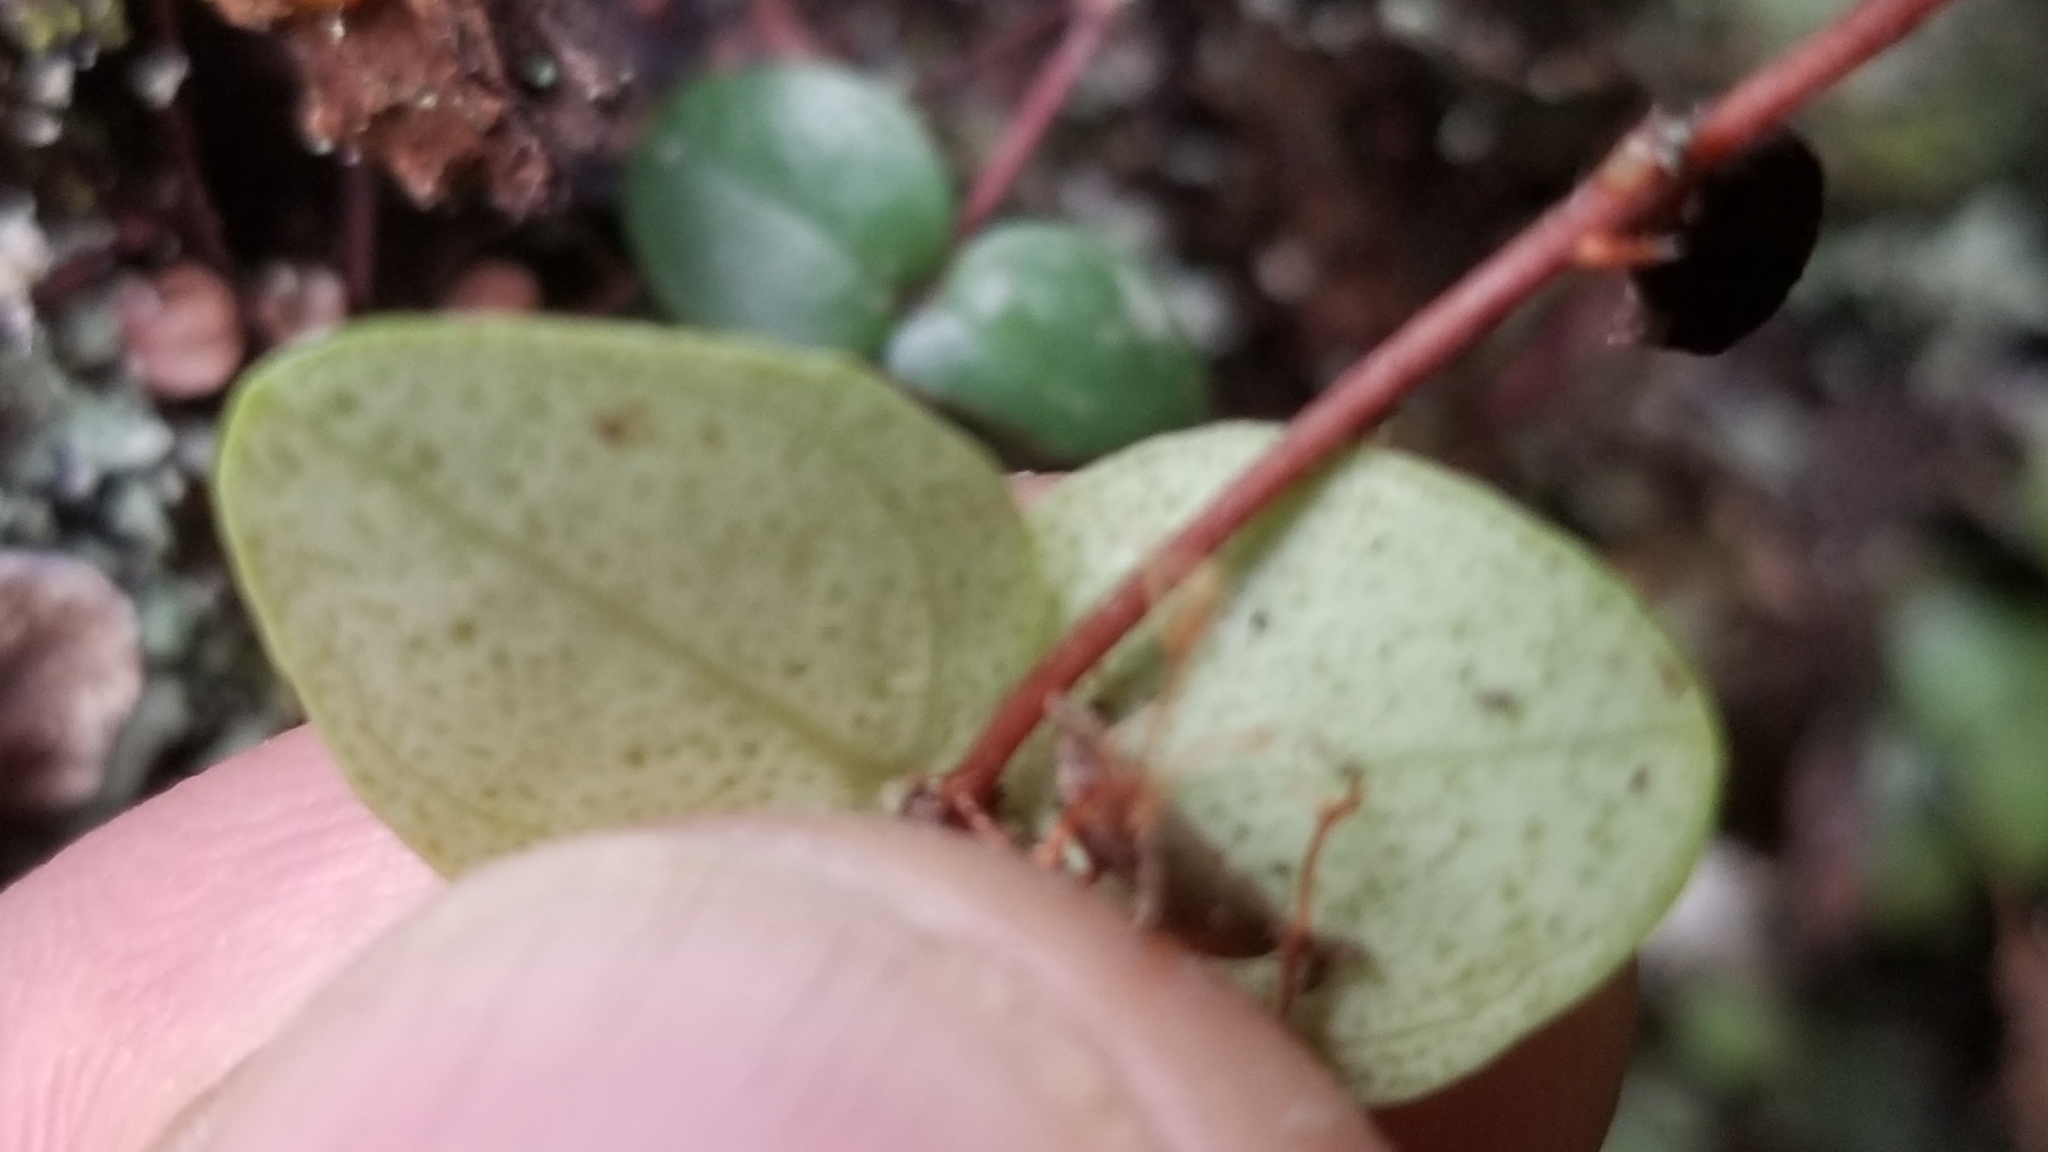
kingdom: Plantae
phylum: Tracheophyta
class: Magnoliopsida
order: Myrtales
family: Myrtaceae
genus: Metrosideros
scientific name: Metrosideros perforata
